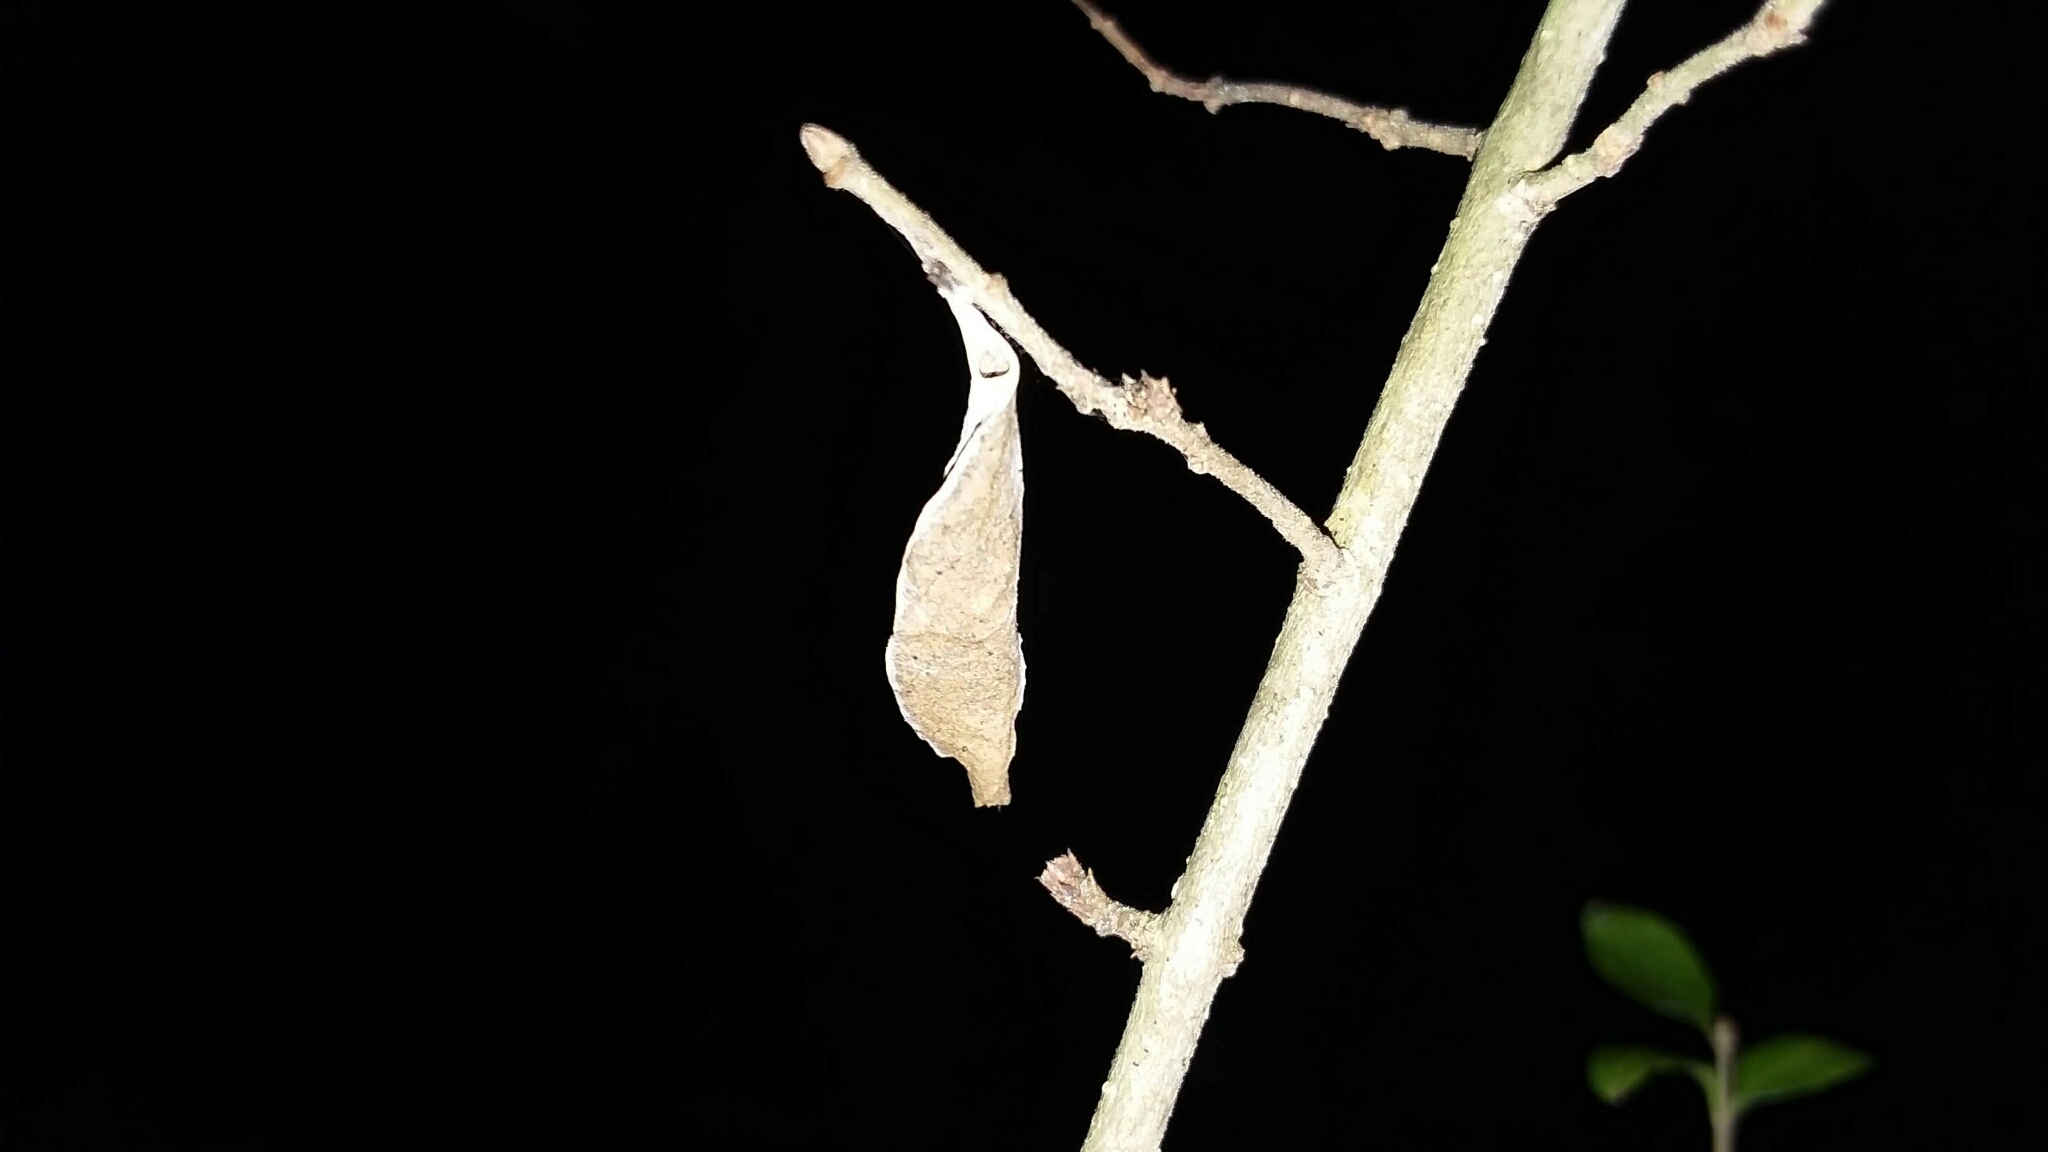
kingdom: Animalia
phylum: Arthropoda
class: Insecta
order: Lepidoptera
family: Saturniidae
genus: Callosamia
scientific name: Callosamia promethea
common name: Promethea silkmoth
